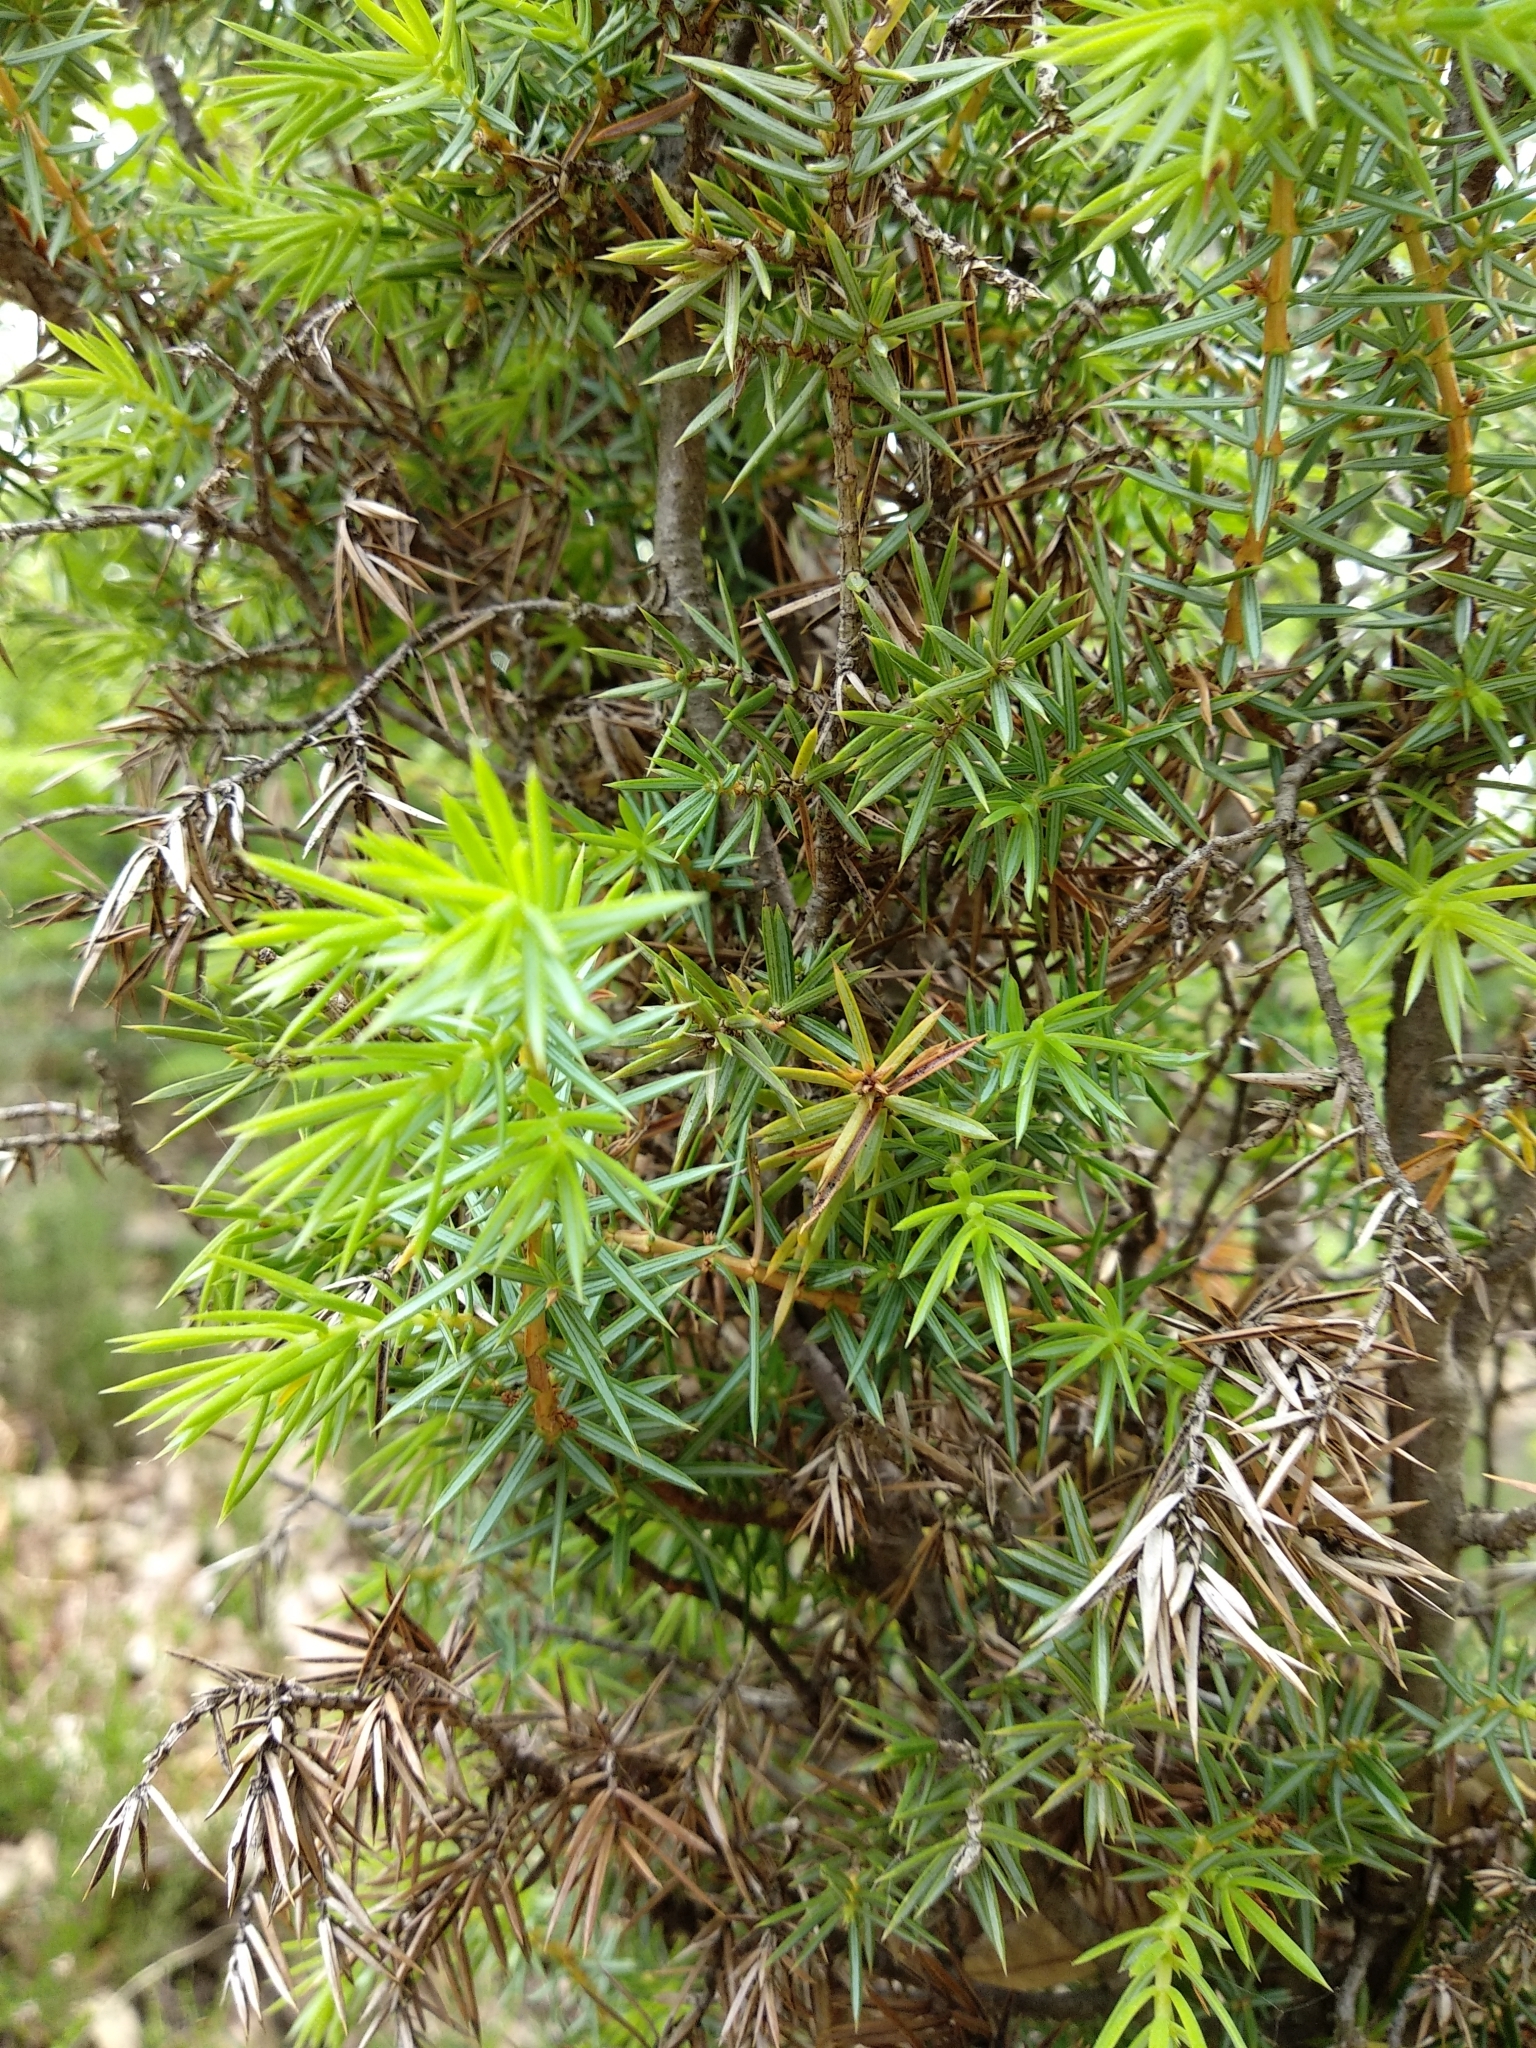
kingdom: Plantae
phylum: Tracheophyta
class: Pinopsida
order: Pinales
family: Cupressaceae
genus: Juniperus
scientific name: Juniperus communis
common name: Common juniper
